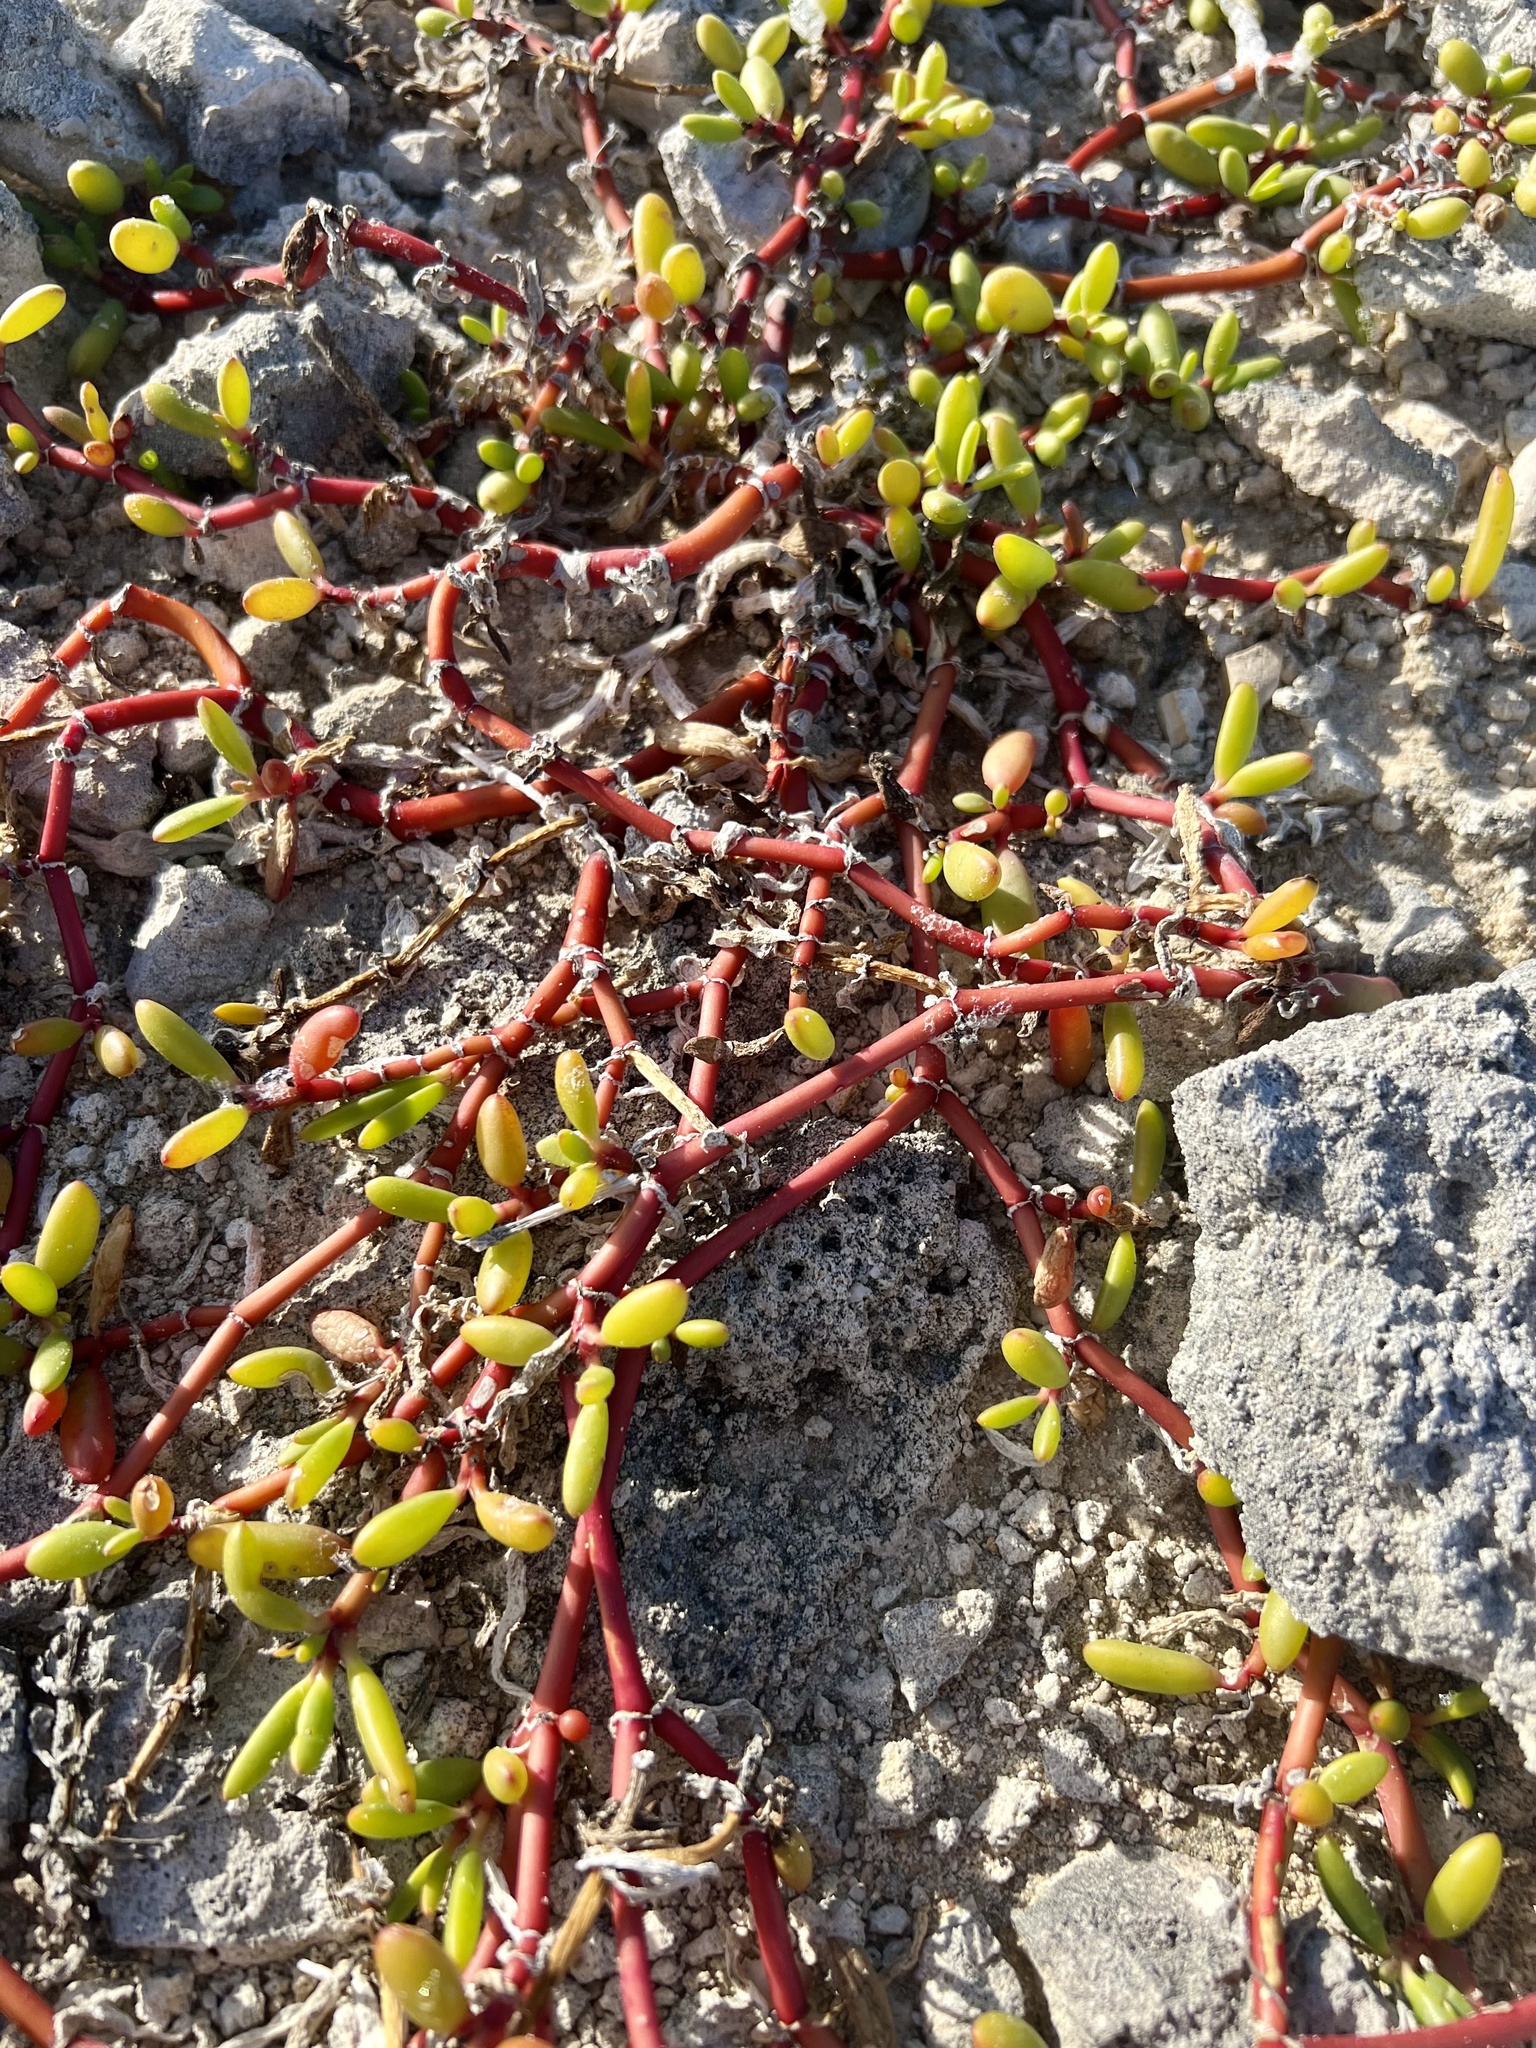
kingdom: Plantae
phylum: Tracheophyta
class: Magnoliopsida
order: Caryophyllales
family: Aizoaceae
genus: Sesuvium
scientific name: Sesuvium portulacastrum
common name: Sea-purslane
